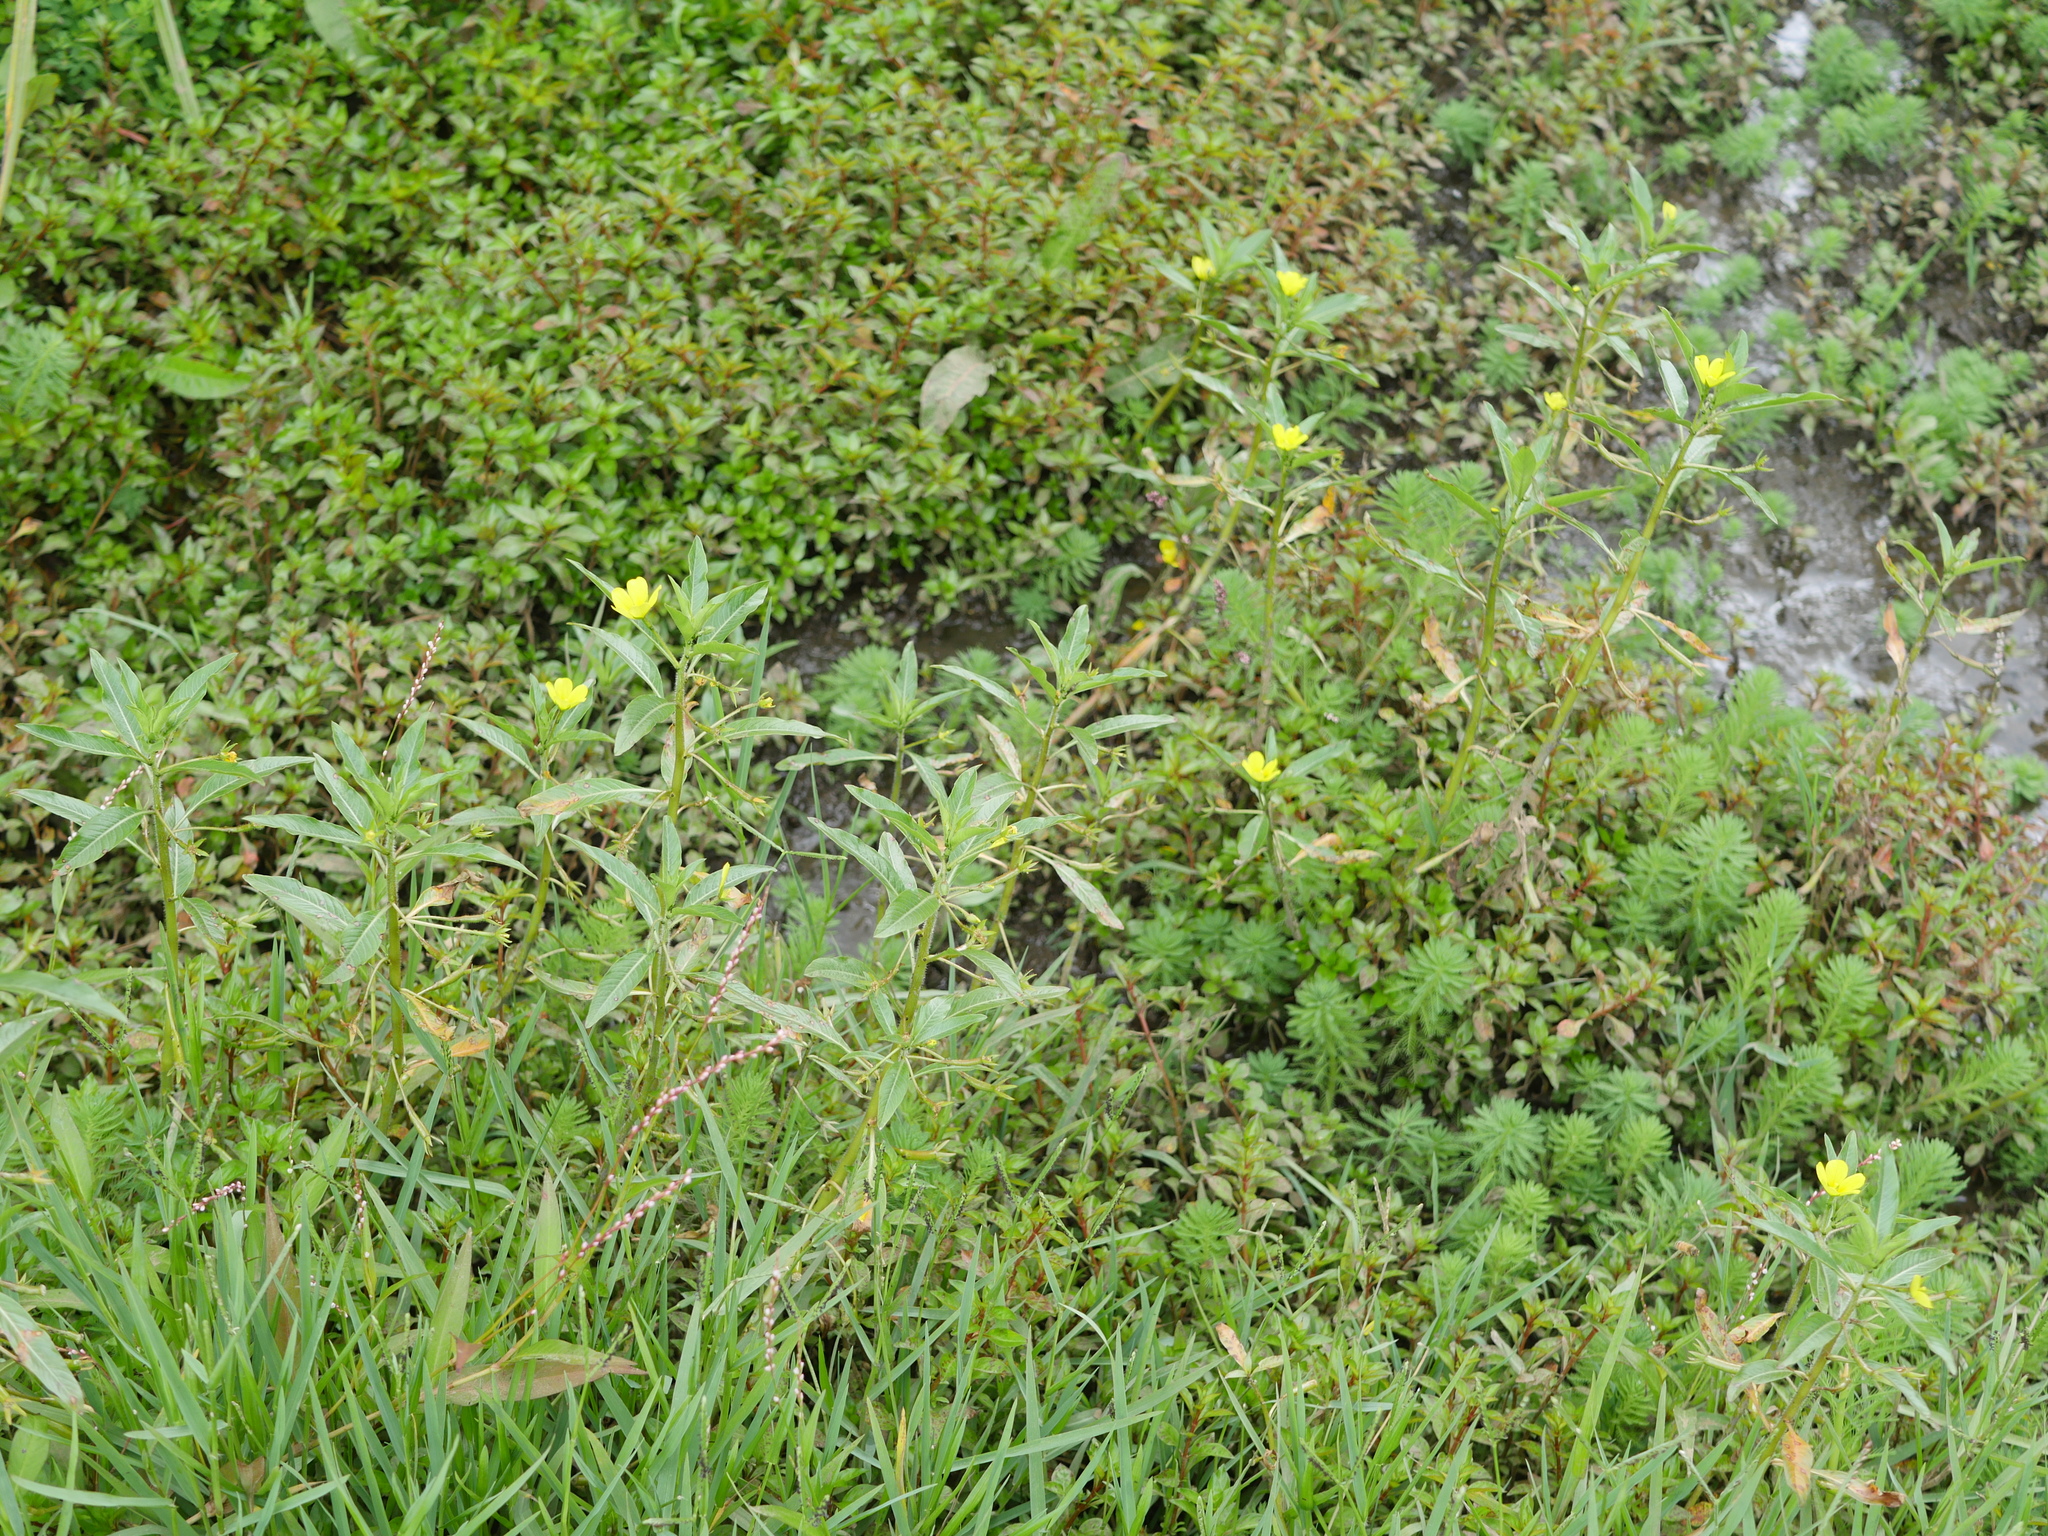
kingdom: Plantae
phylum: Tracheophyta
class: Magnoliopsida
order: Myrtales
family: Onagraceae
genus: Ludwigia
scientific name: Ludwigia peploides
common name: Floating primrose-willow
